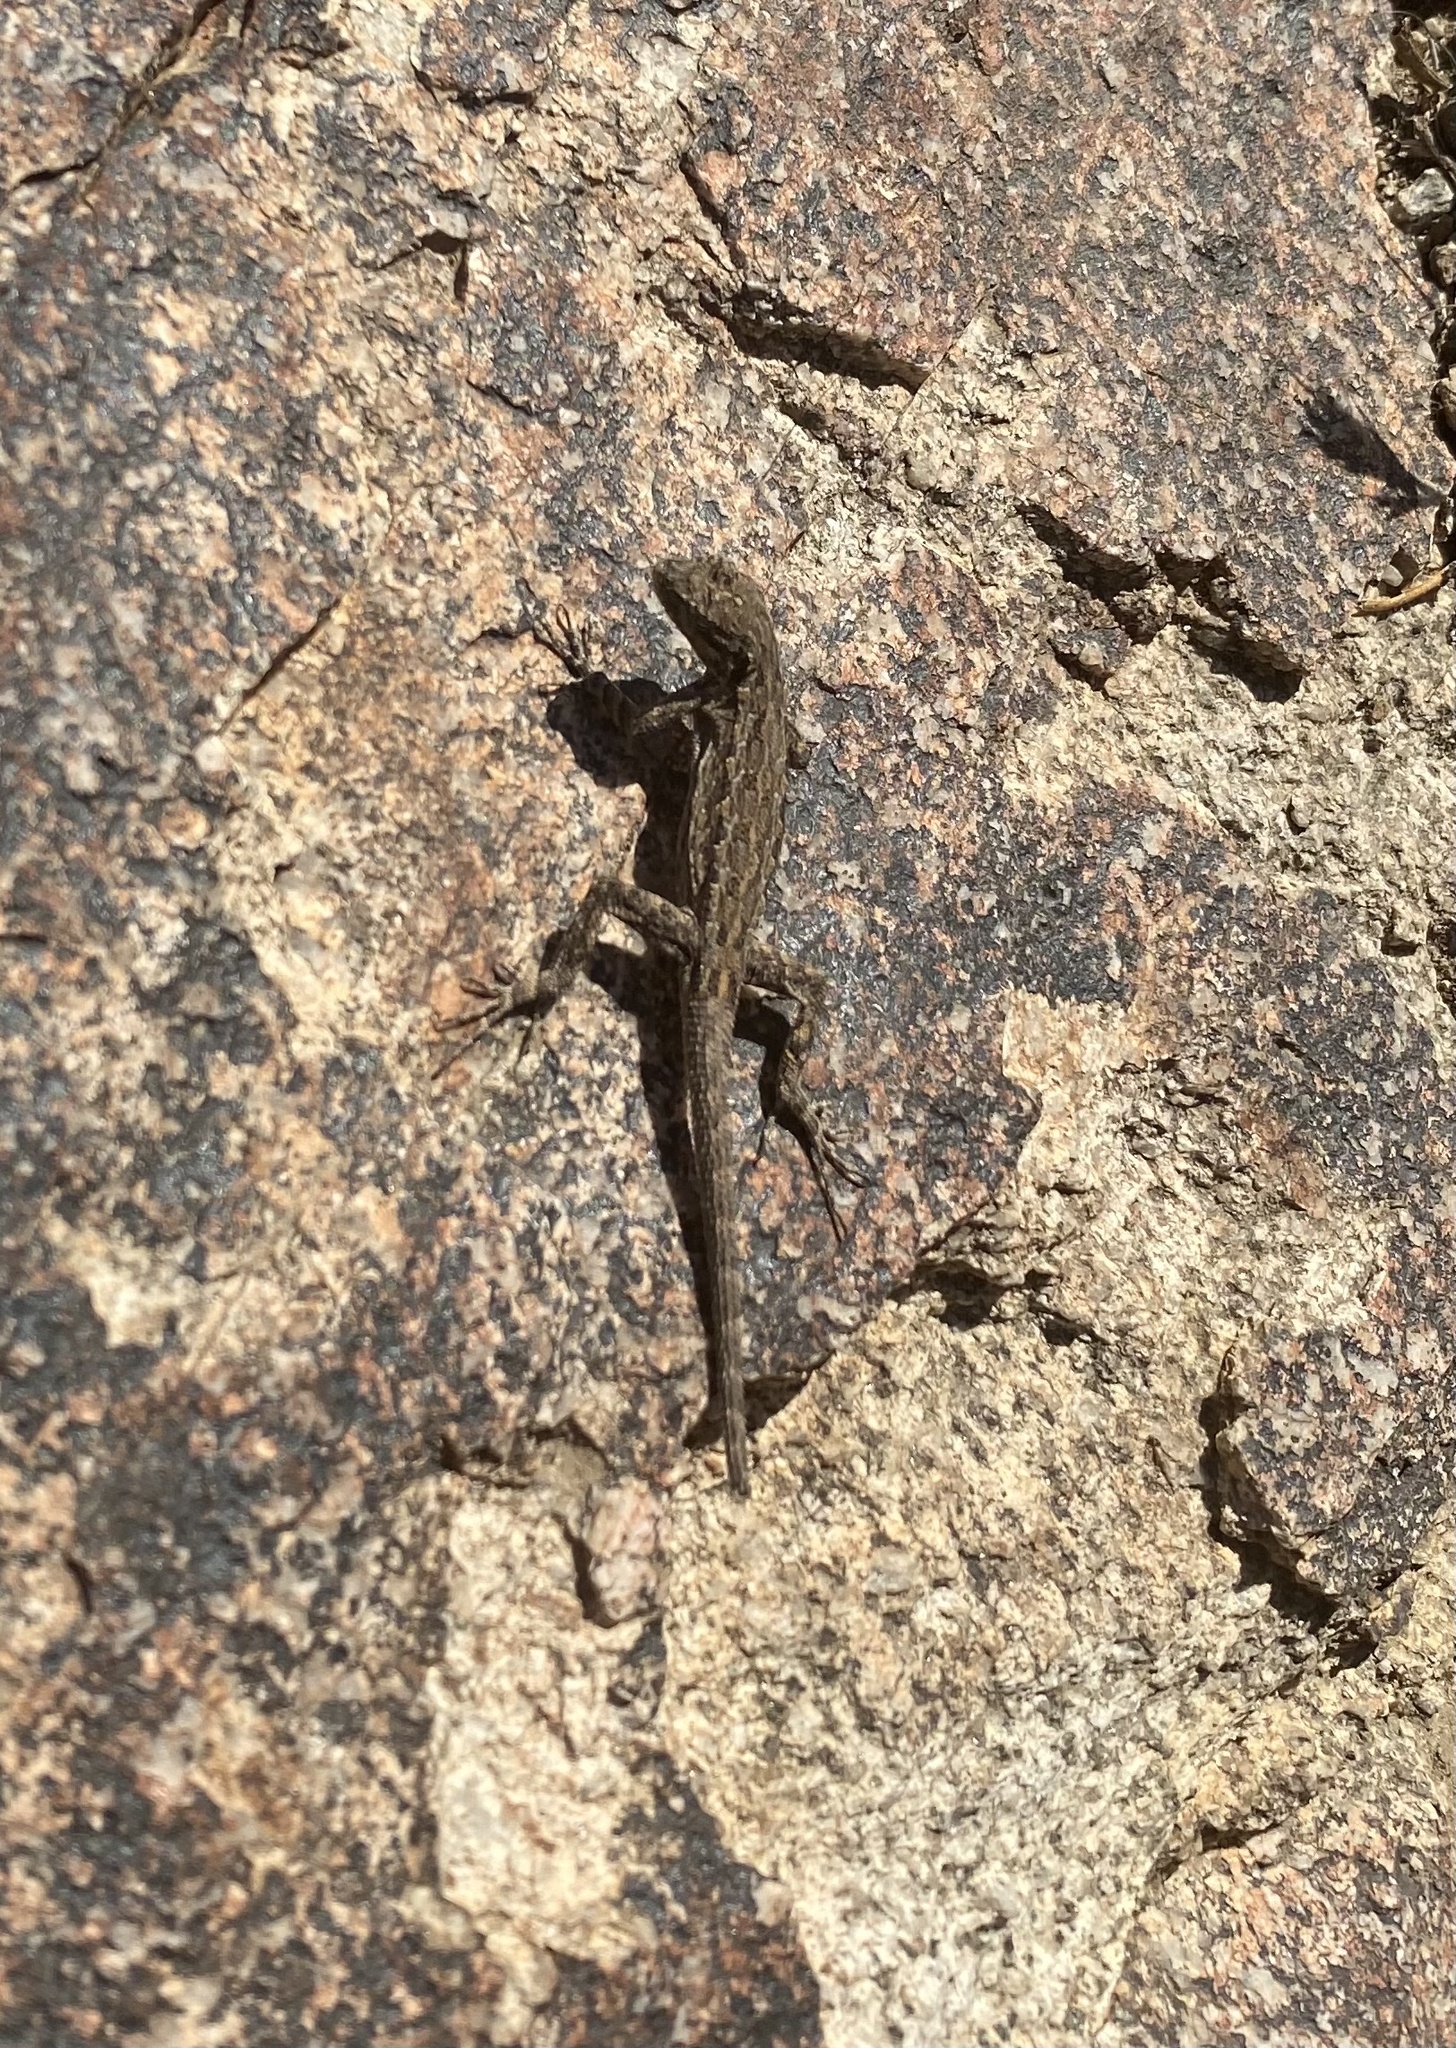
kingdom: Animalia
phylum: Chordata
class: Squamata
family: Phrynosomatidae
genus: Urosaurus
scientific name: Urosaurus ornatus
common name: Ornate tree lizard
